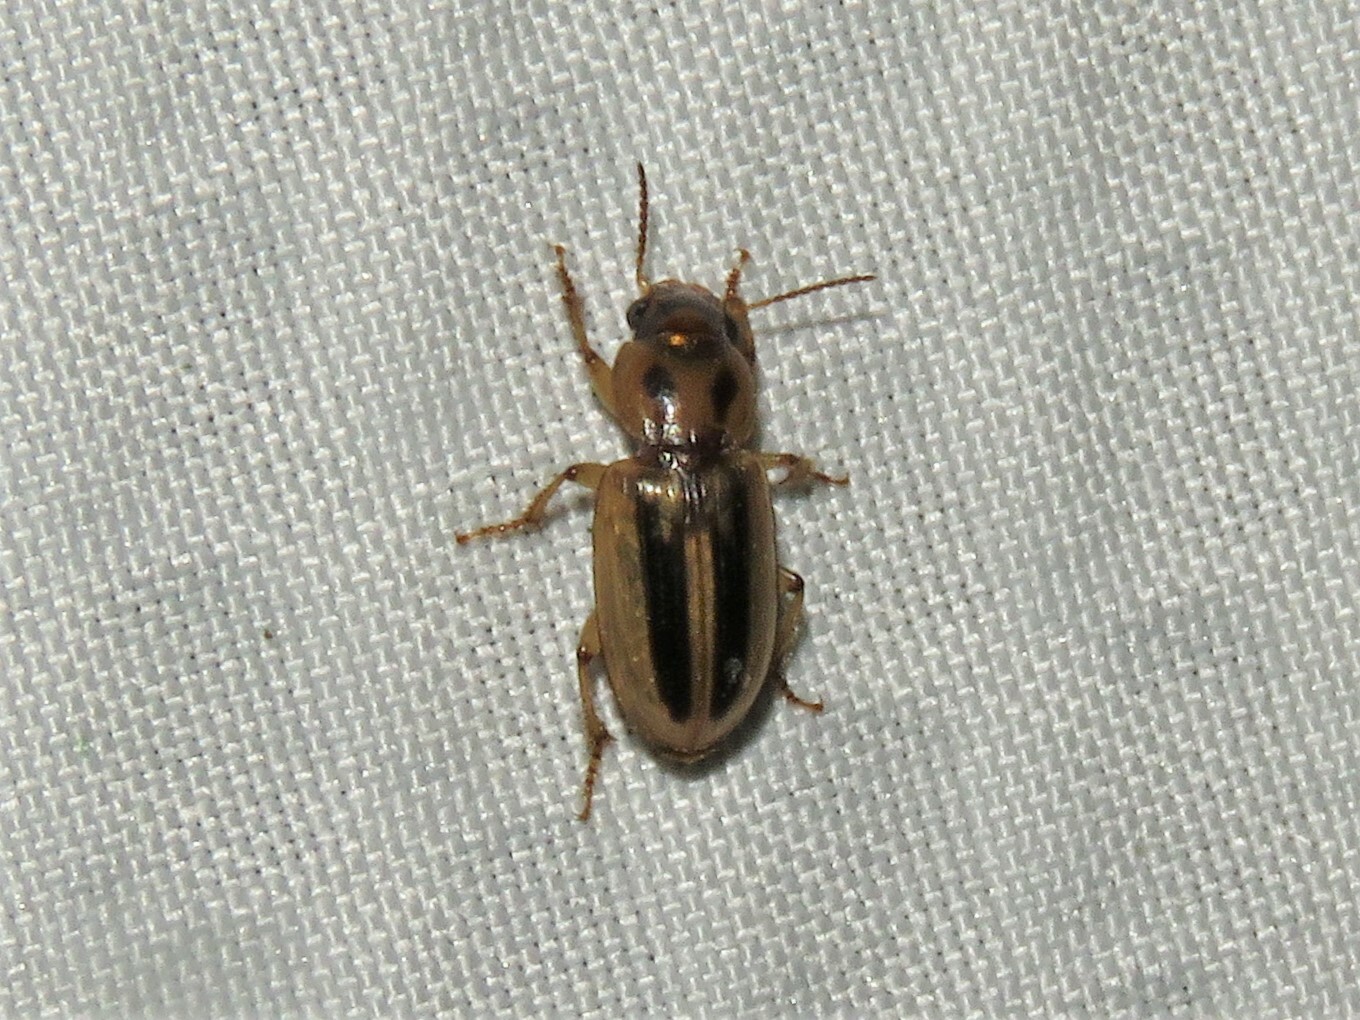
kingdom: Animalia
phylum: Arthropoda
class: Insecta
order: Coleoptera
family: Carabidae
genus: Stenolophus
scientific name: Stenolophus lineola
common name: Lined stenolophus
